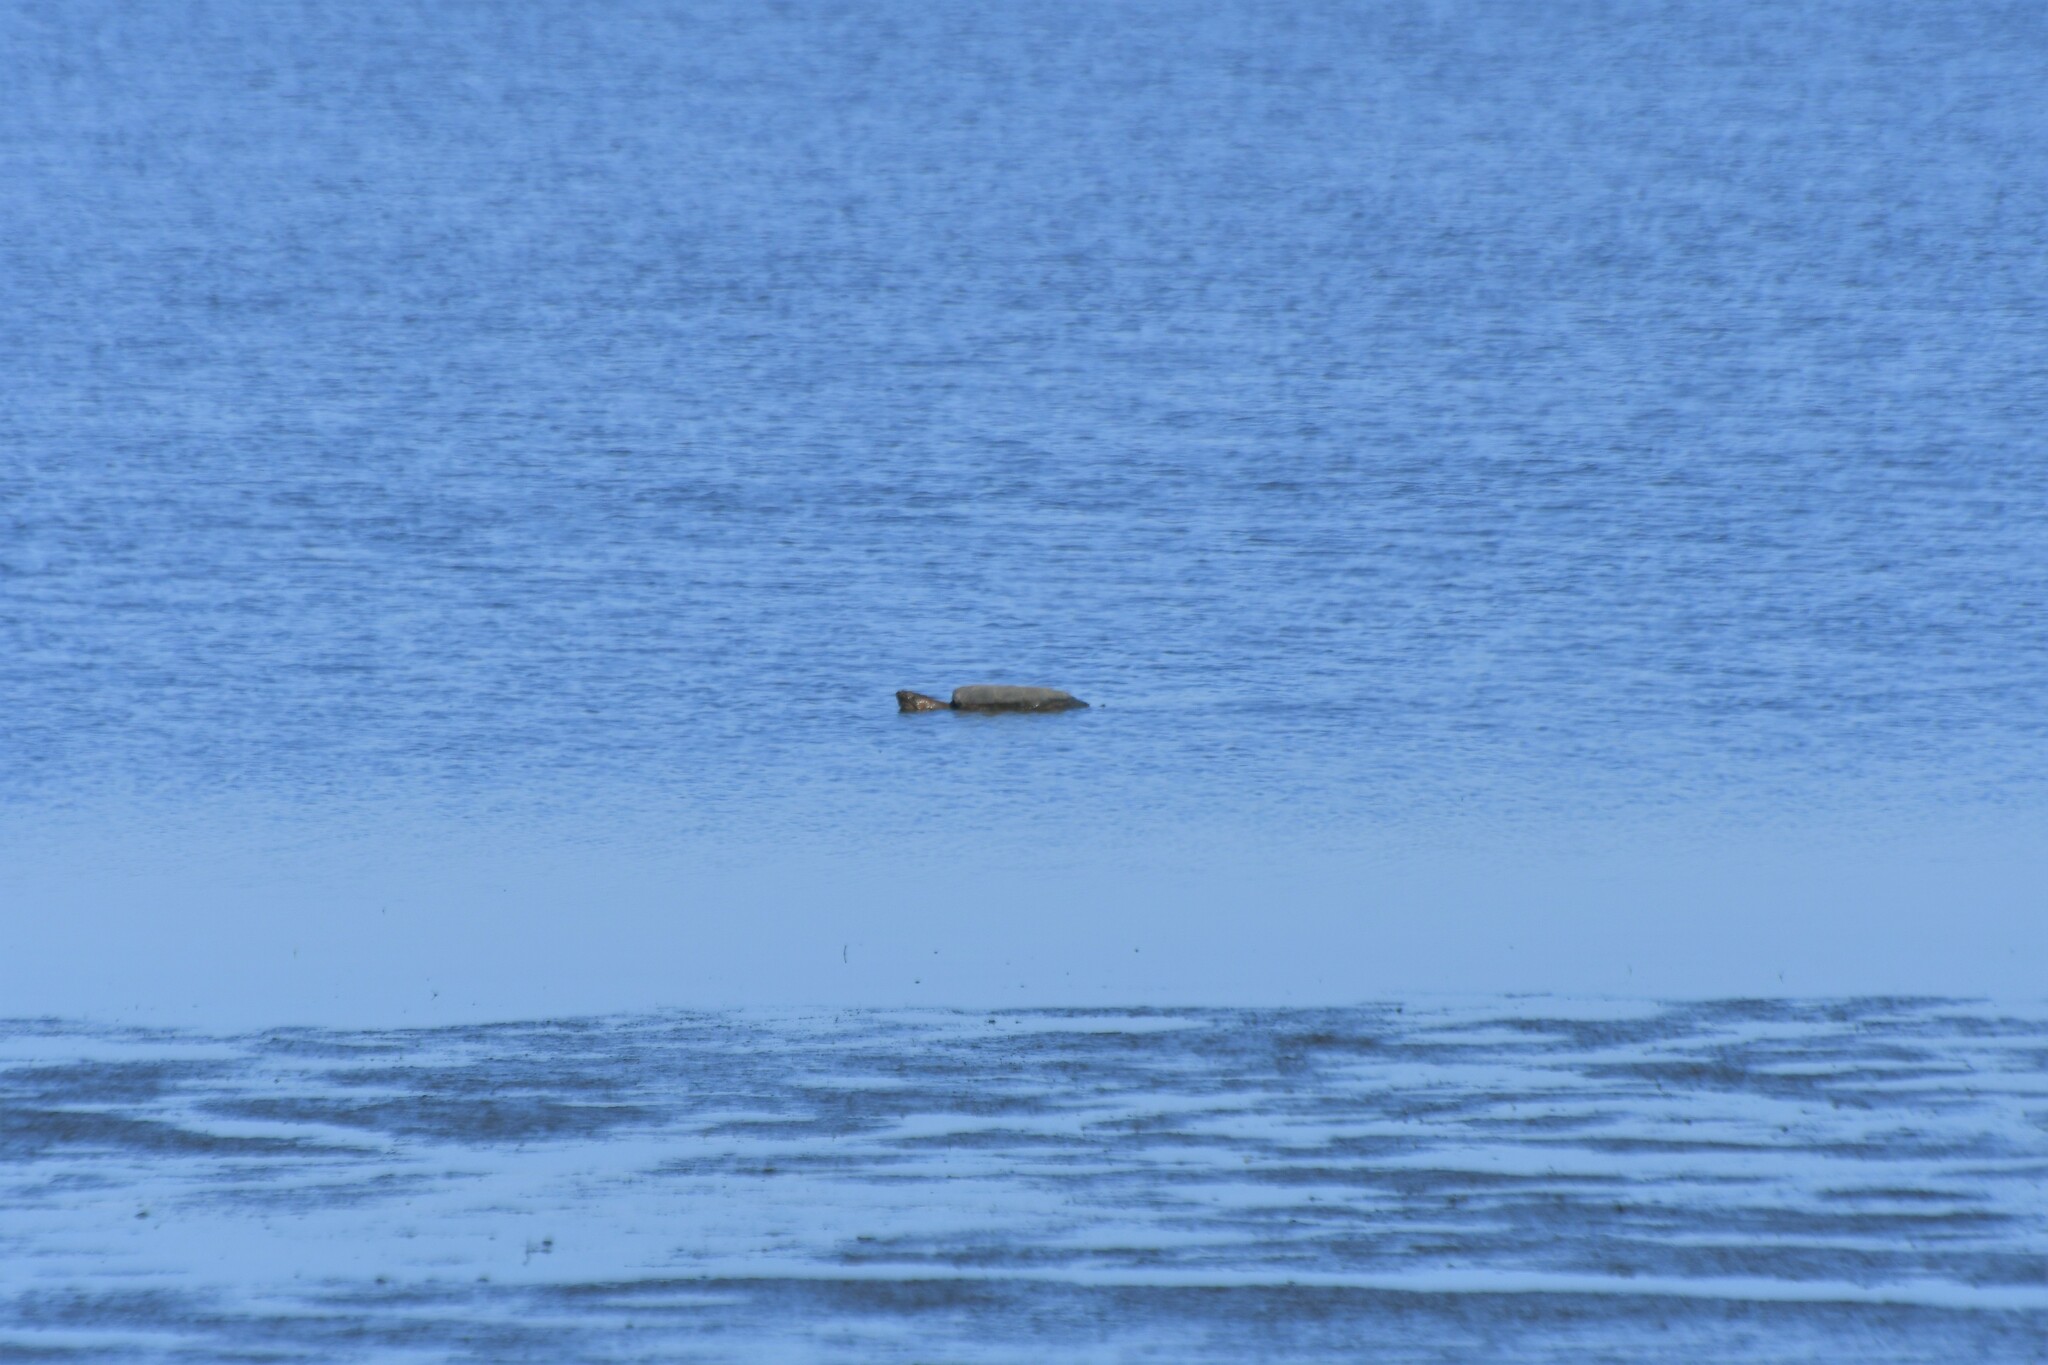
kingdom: Animalia
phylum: Chordata
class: Testudines
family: Chelydridae
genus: Chelydra
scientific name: Chelydra serpentina
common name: Common snapping turtle
